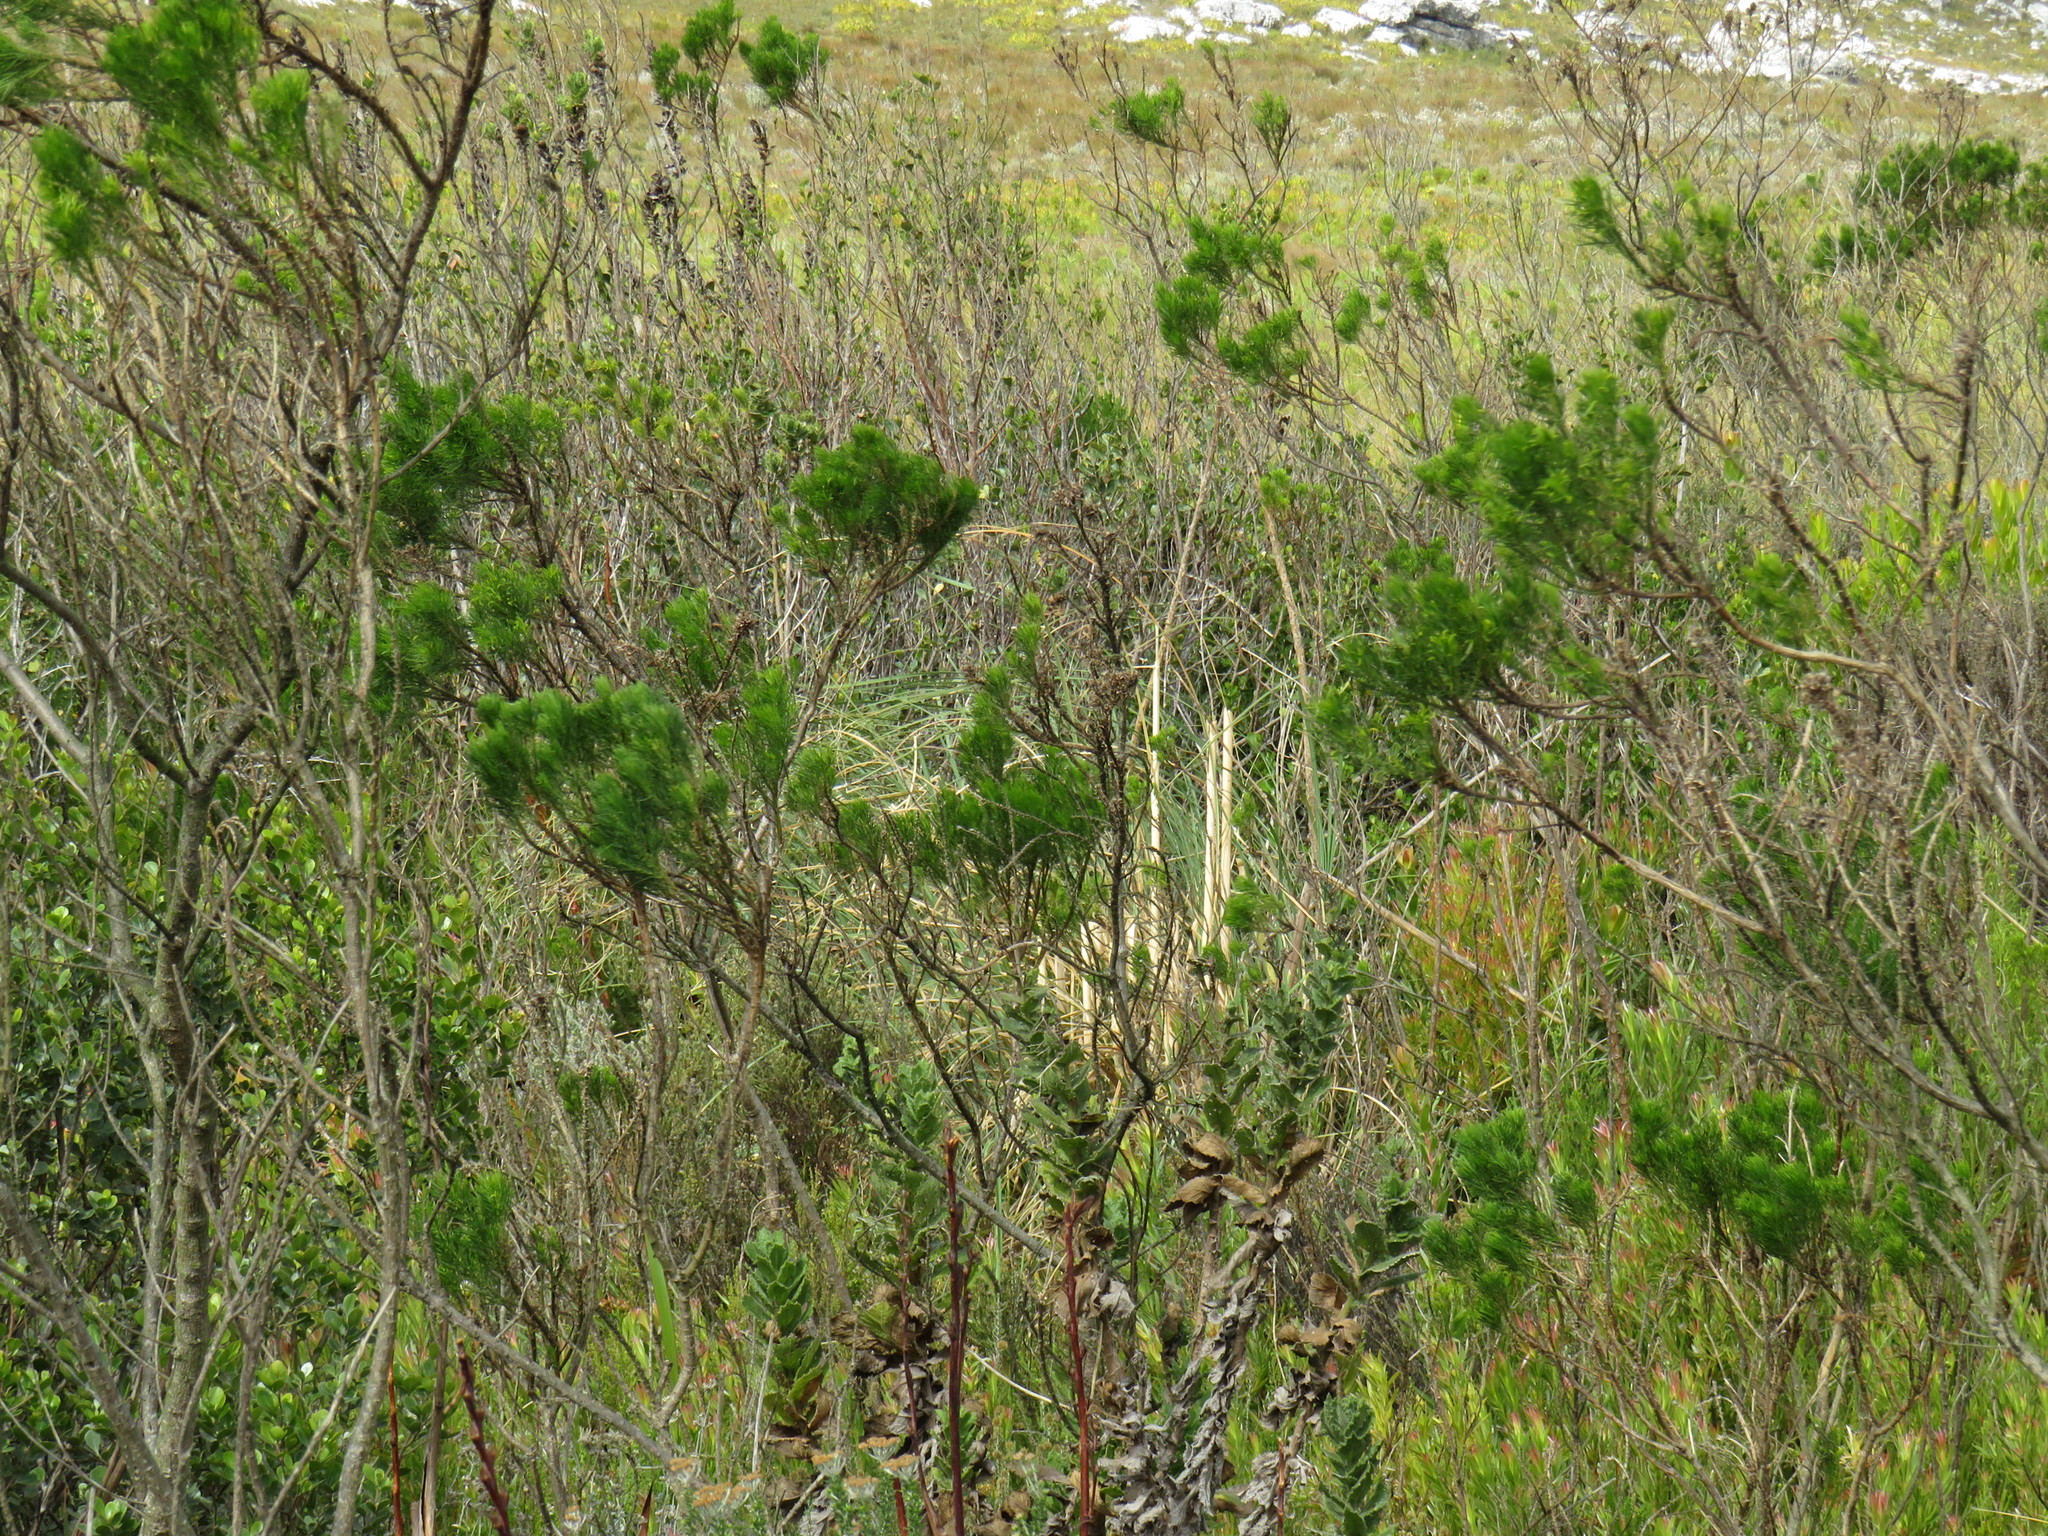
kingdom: Plantae
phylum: Tracheophyta
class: Liliopsida
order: Poales
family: Poaceae
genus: Cortaderia
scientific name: Cortaderia selloana
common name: Uruguayan pampas grass
